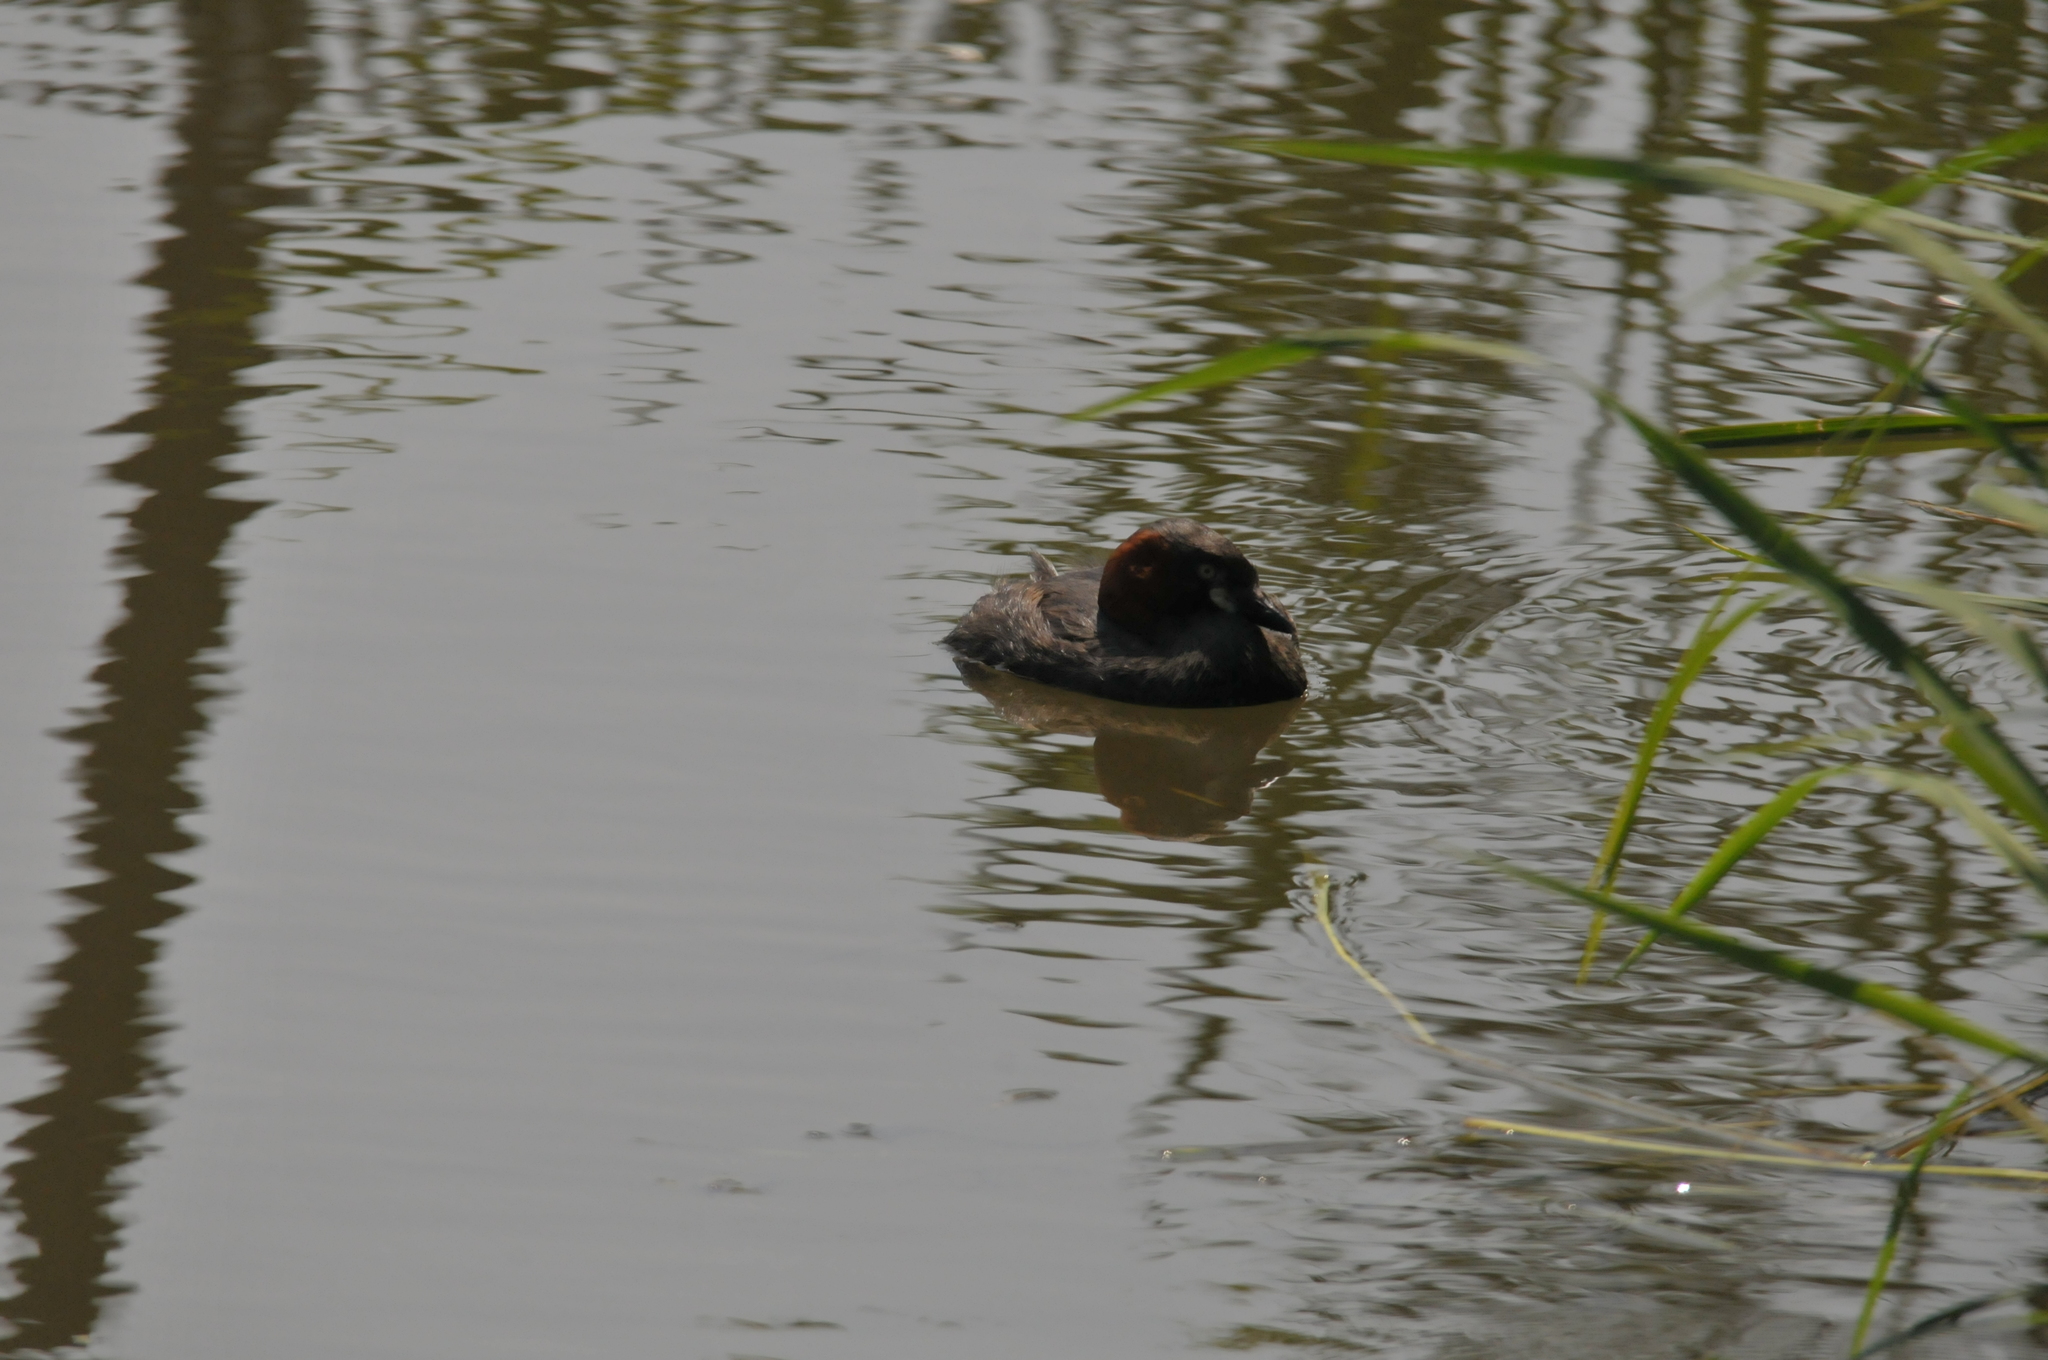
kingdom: Animalia
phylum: Chordata
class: Aves
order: Podicipediformes
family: Podicipedidae
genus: Tachybaptus
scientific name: Tachybaptus ruficollis
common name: Little grebe
